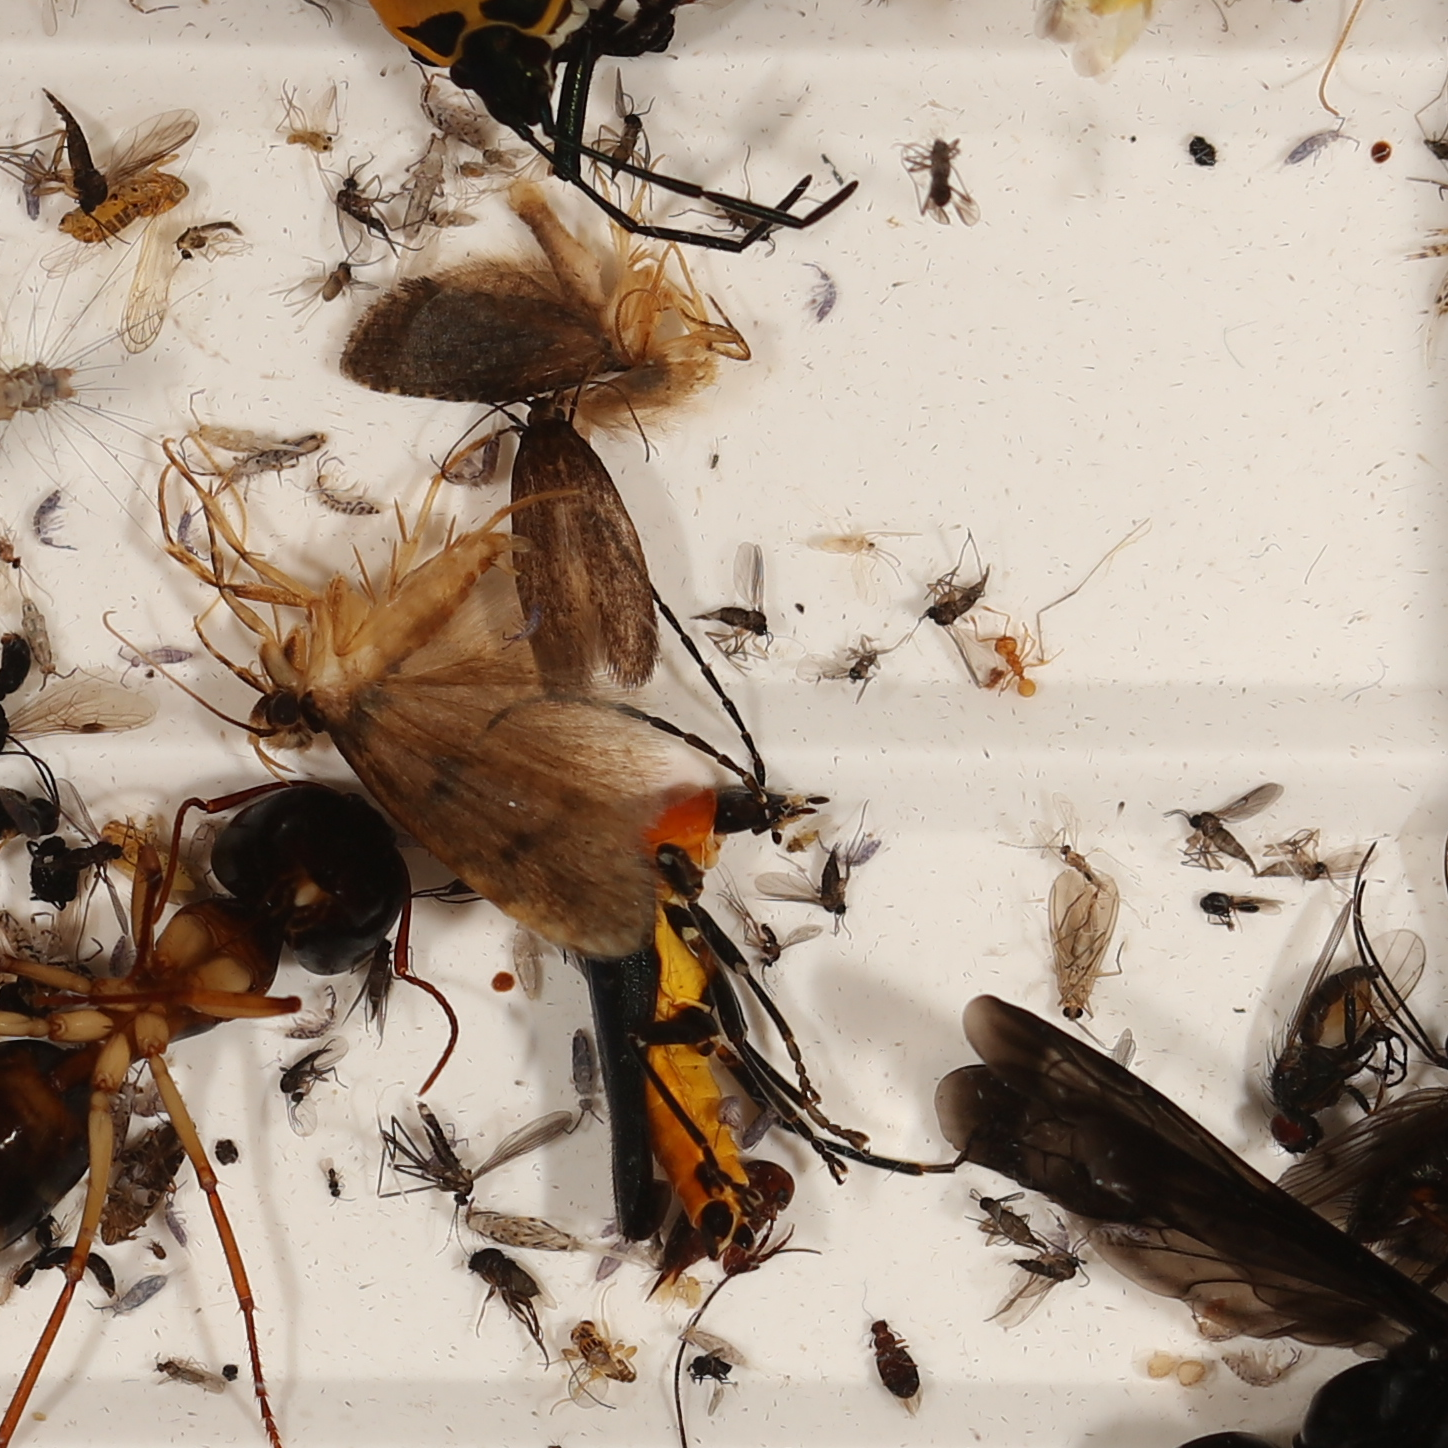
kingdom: Animalia
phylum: Arthropoda
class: Insecta
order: Coleoptera
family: Cantharidae
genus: Chauliognathus
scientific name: Chauliognathus
